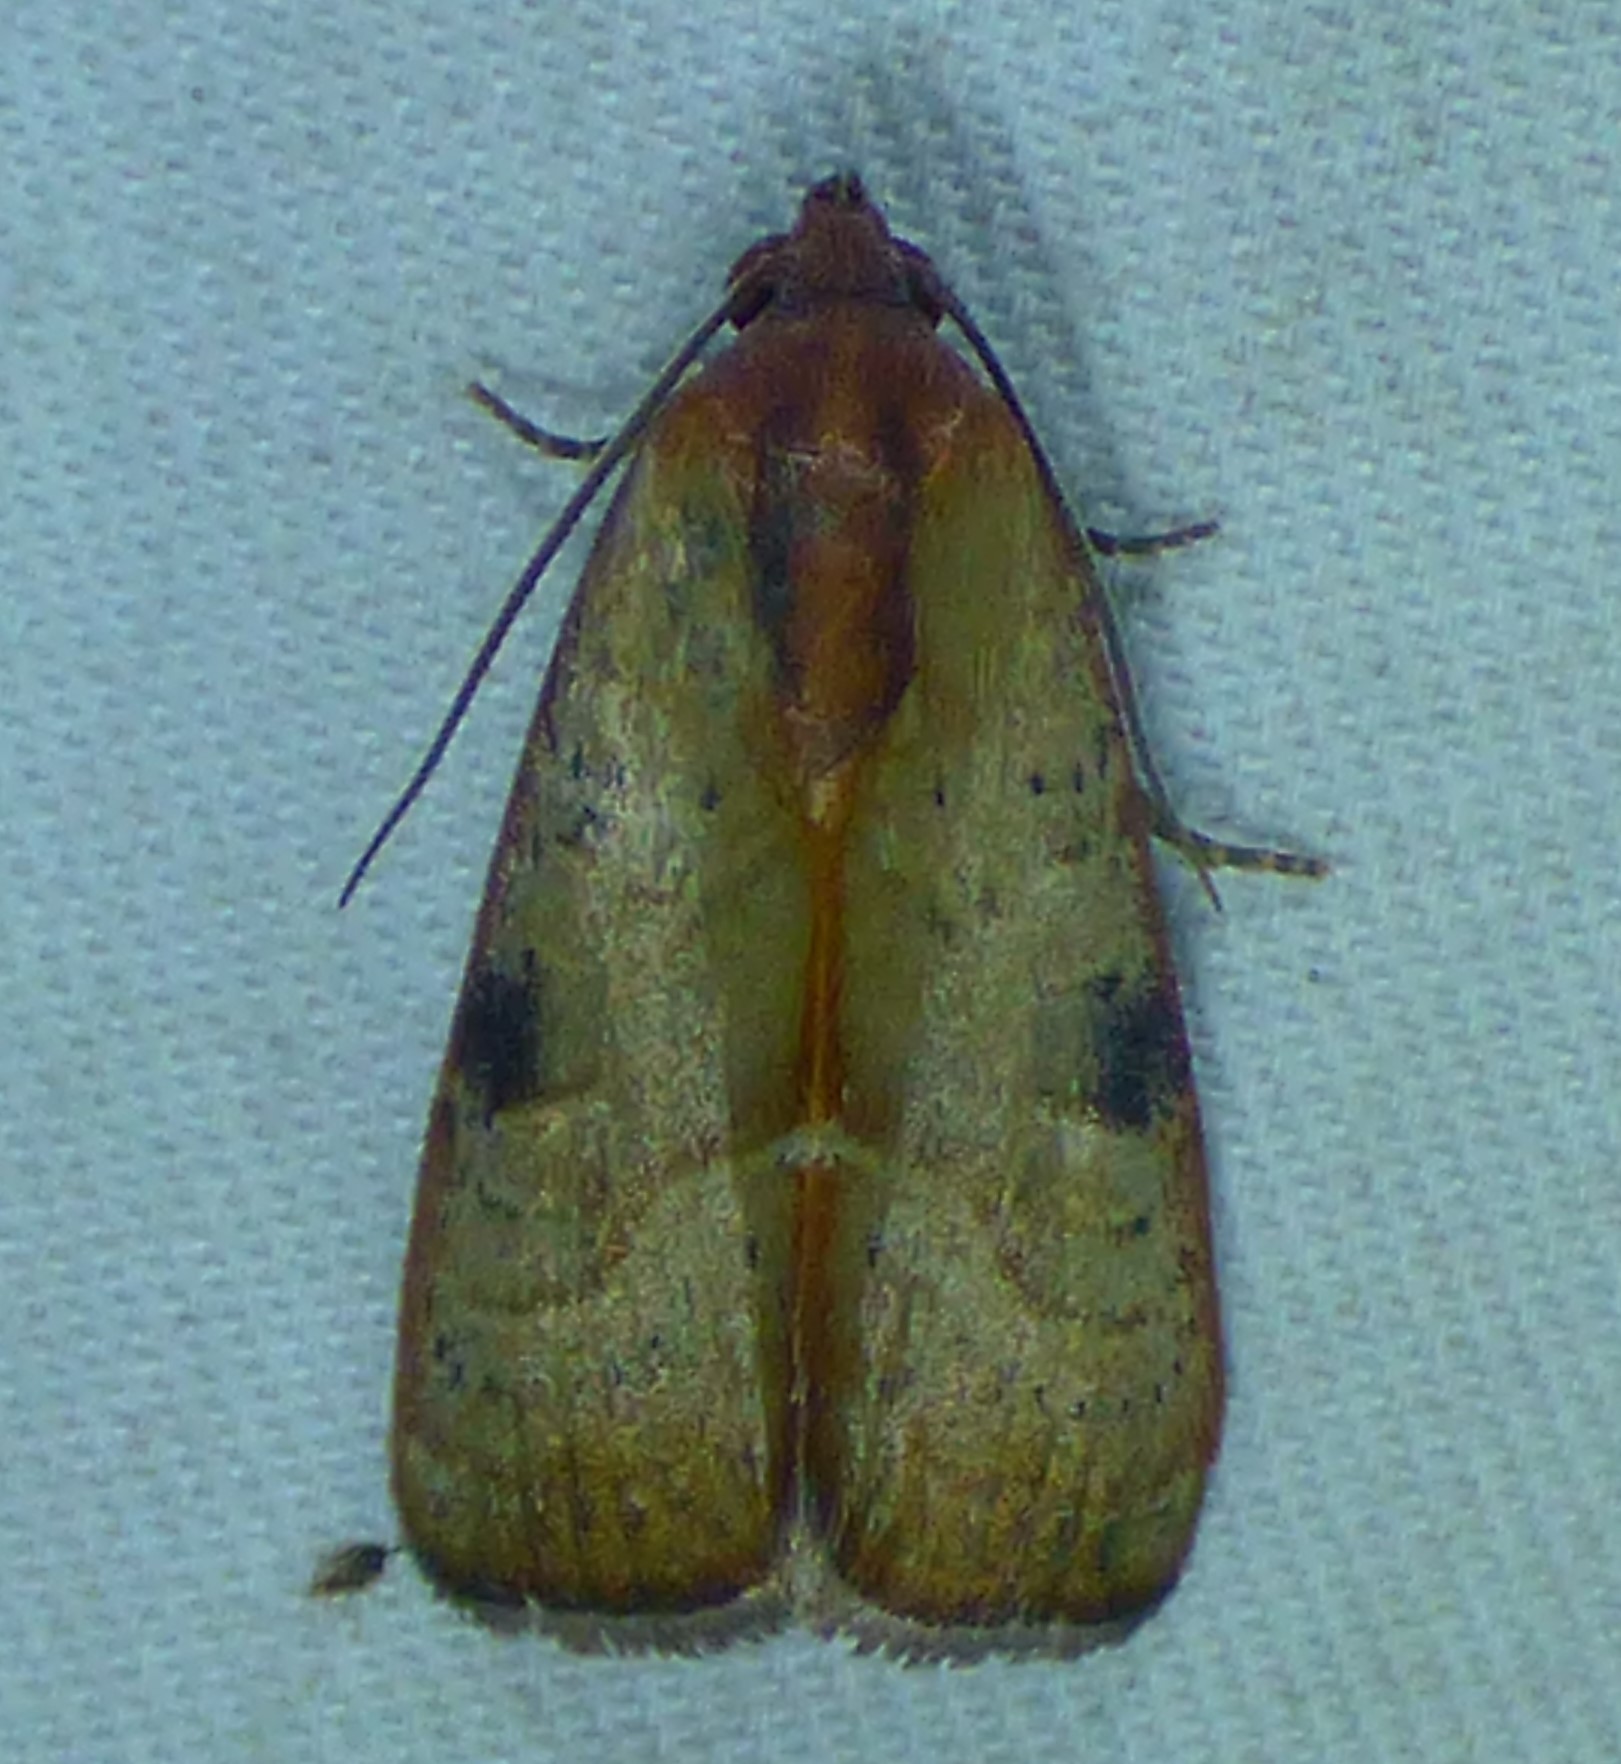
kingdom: Animalia
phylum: Arthropoda
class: Insecta
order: Lepidoptera
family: Noctuidae
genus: Galgula
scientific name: Galgula partita
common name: Wedgeling
